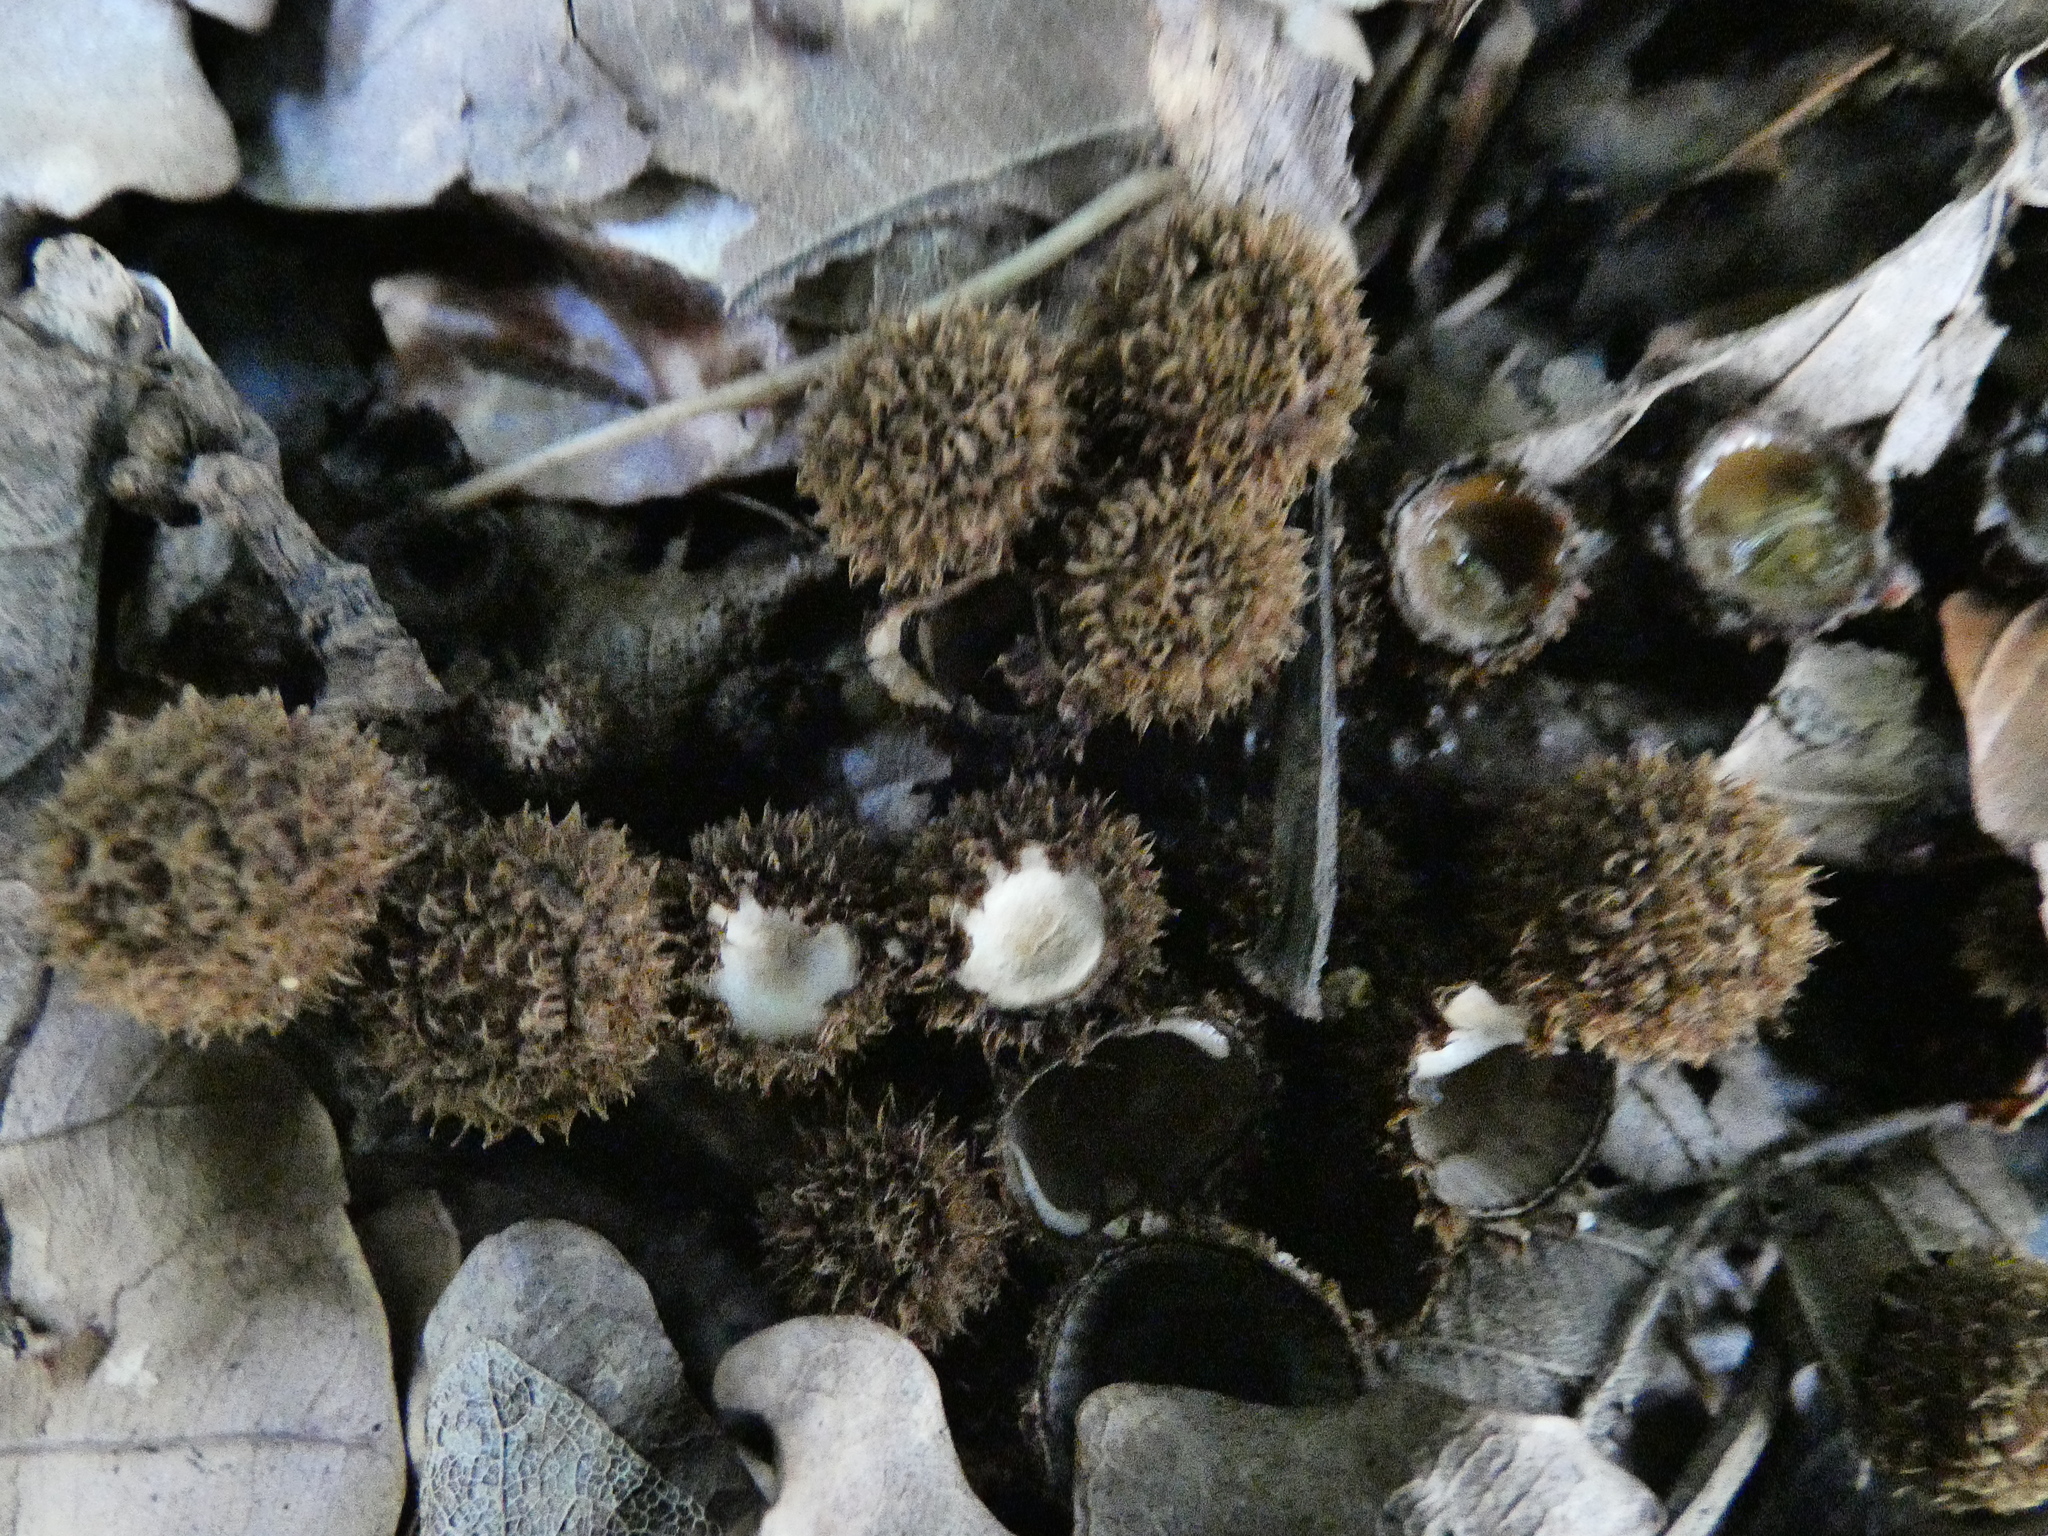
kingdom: Fungi
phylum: Basidiomycota
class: Agaricomycetes
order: Agaricales
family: Agaricaceae
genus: Cyathus
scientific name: Cyathus striatus
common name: Fluted bird's nest
